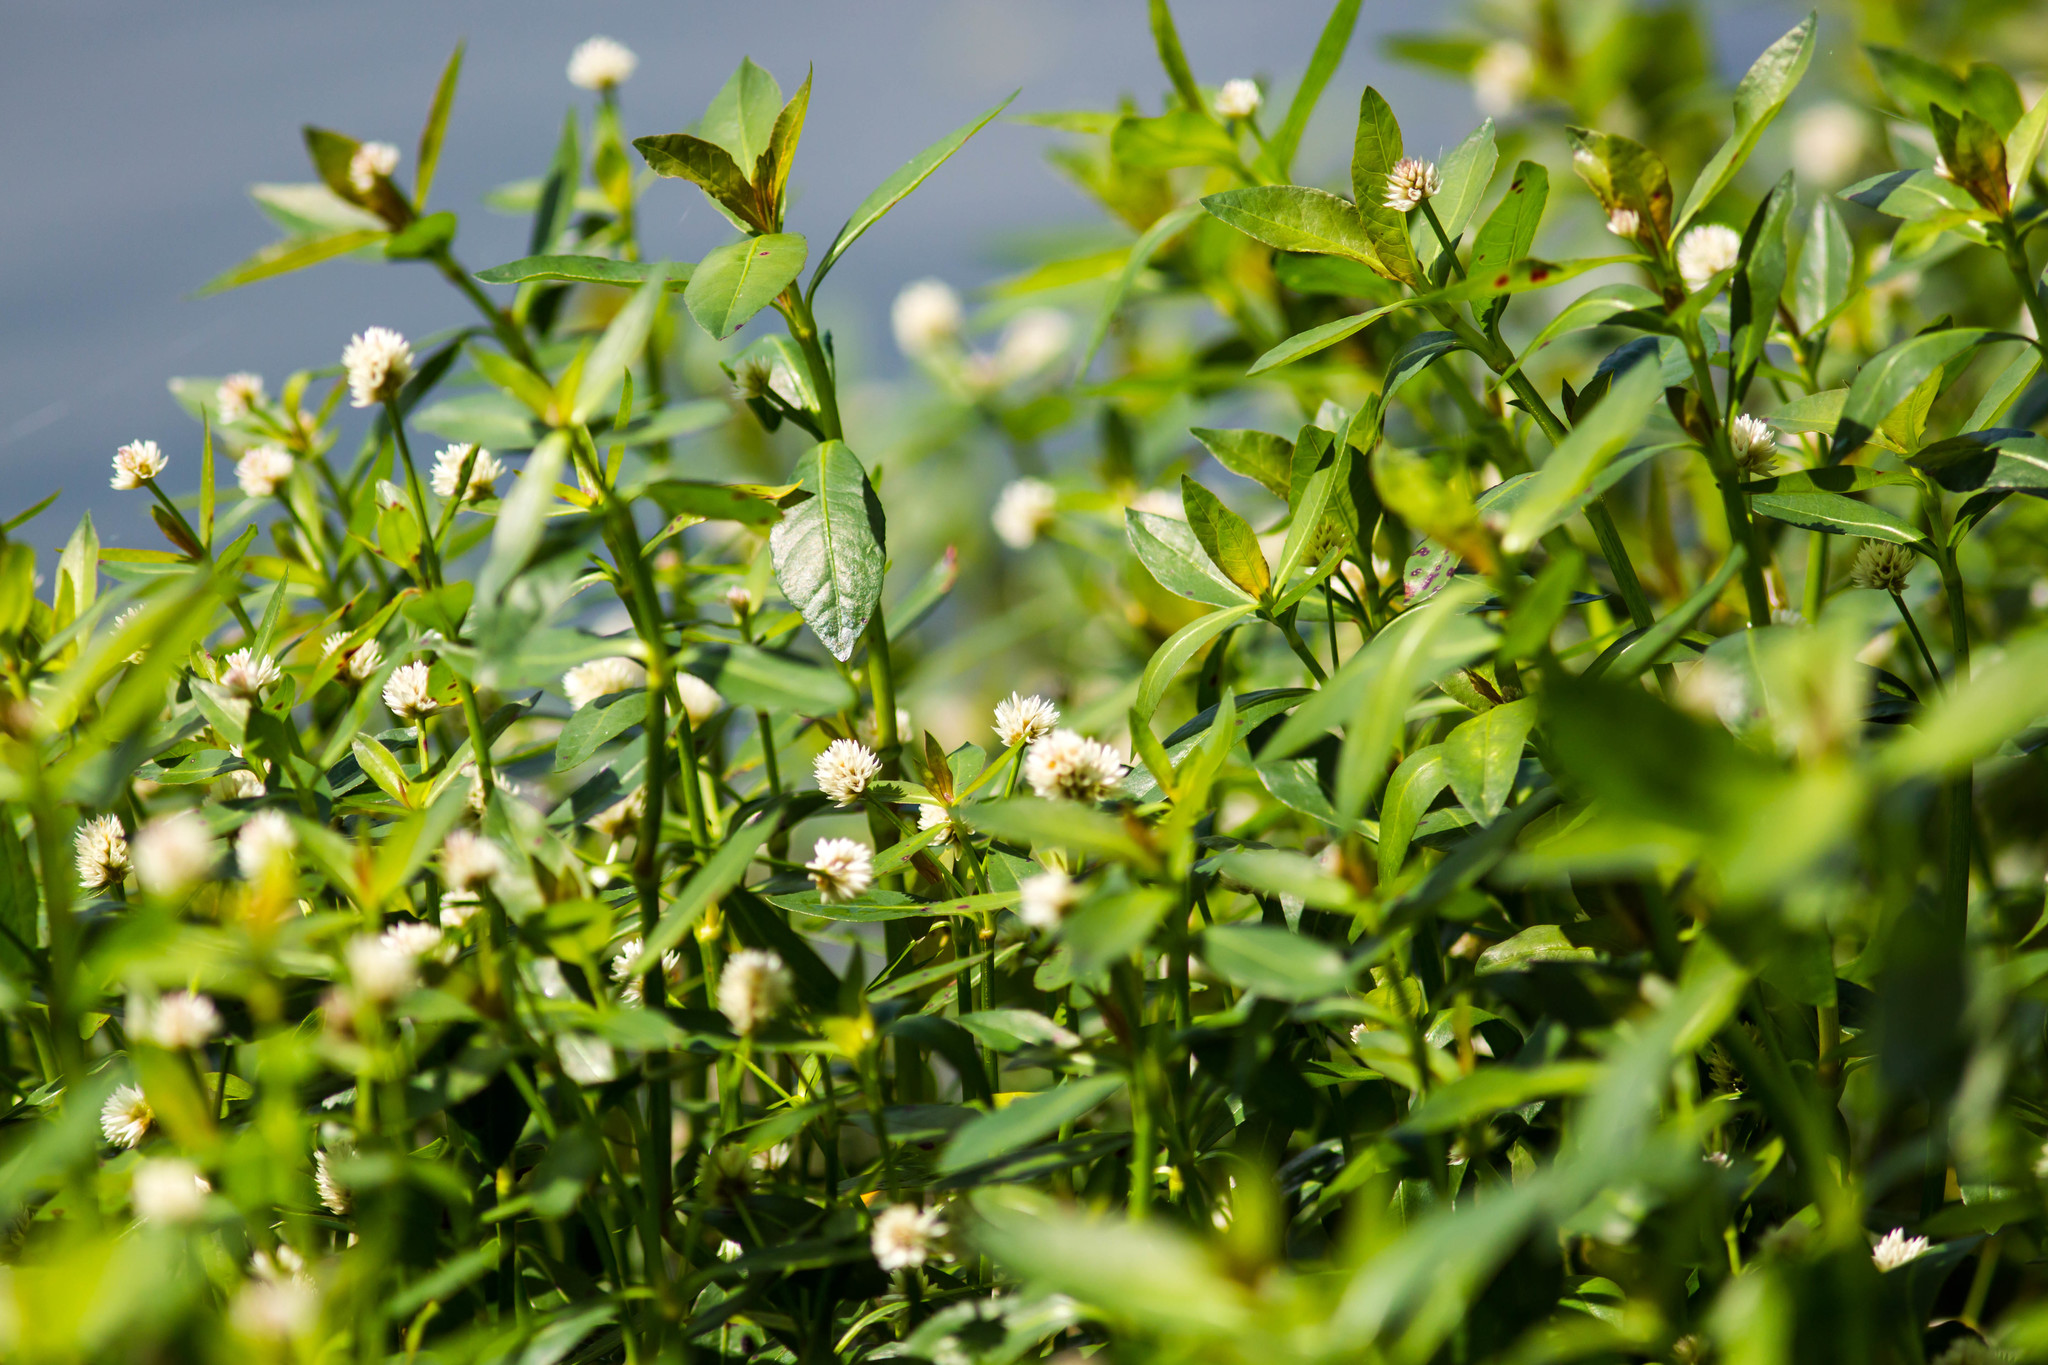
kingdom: Plantae
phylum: Tracheophyta
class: Magnoliopsida
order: Caryophyllales
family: Amaranthaceae
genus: Alternanthera
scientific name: Alternanthera philoxeroides
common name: Alligatorweed
